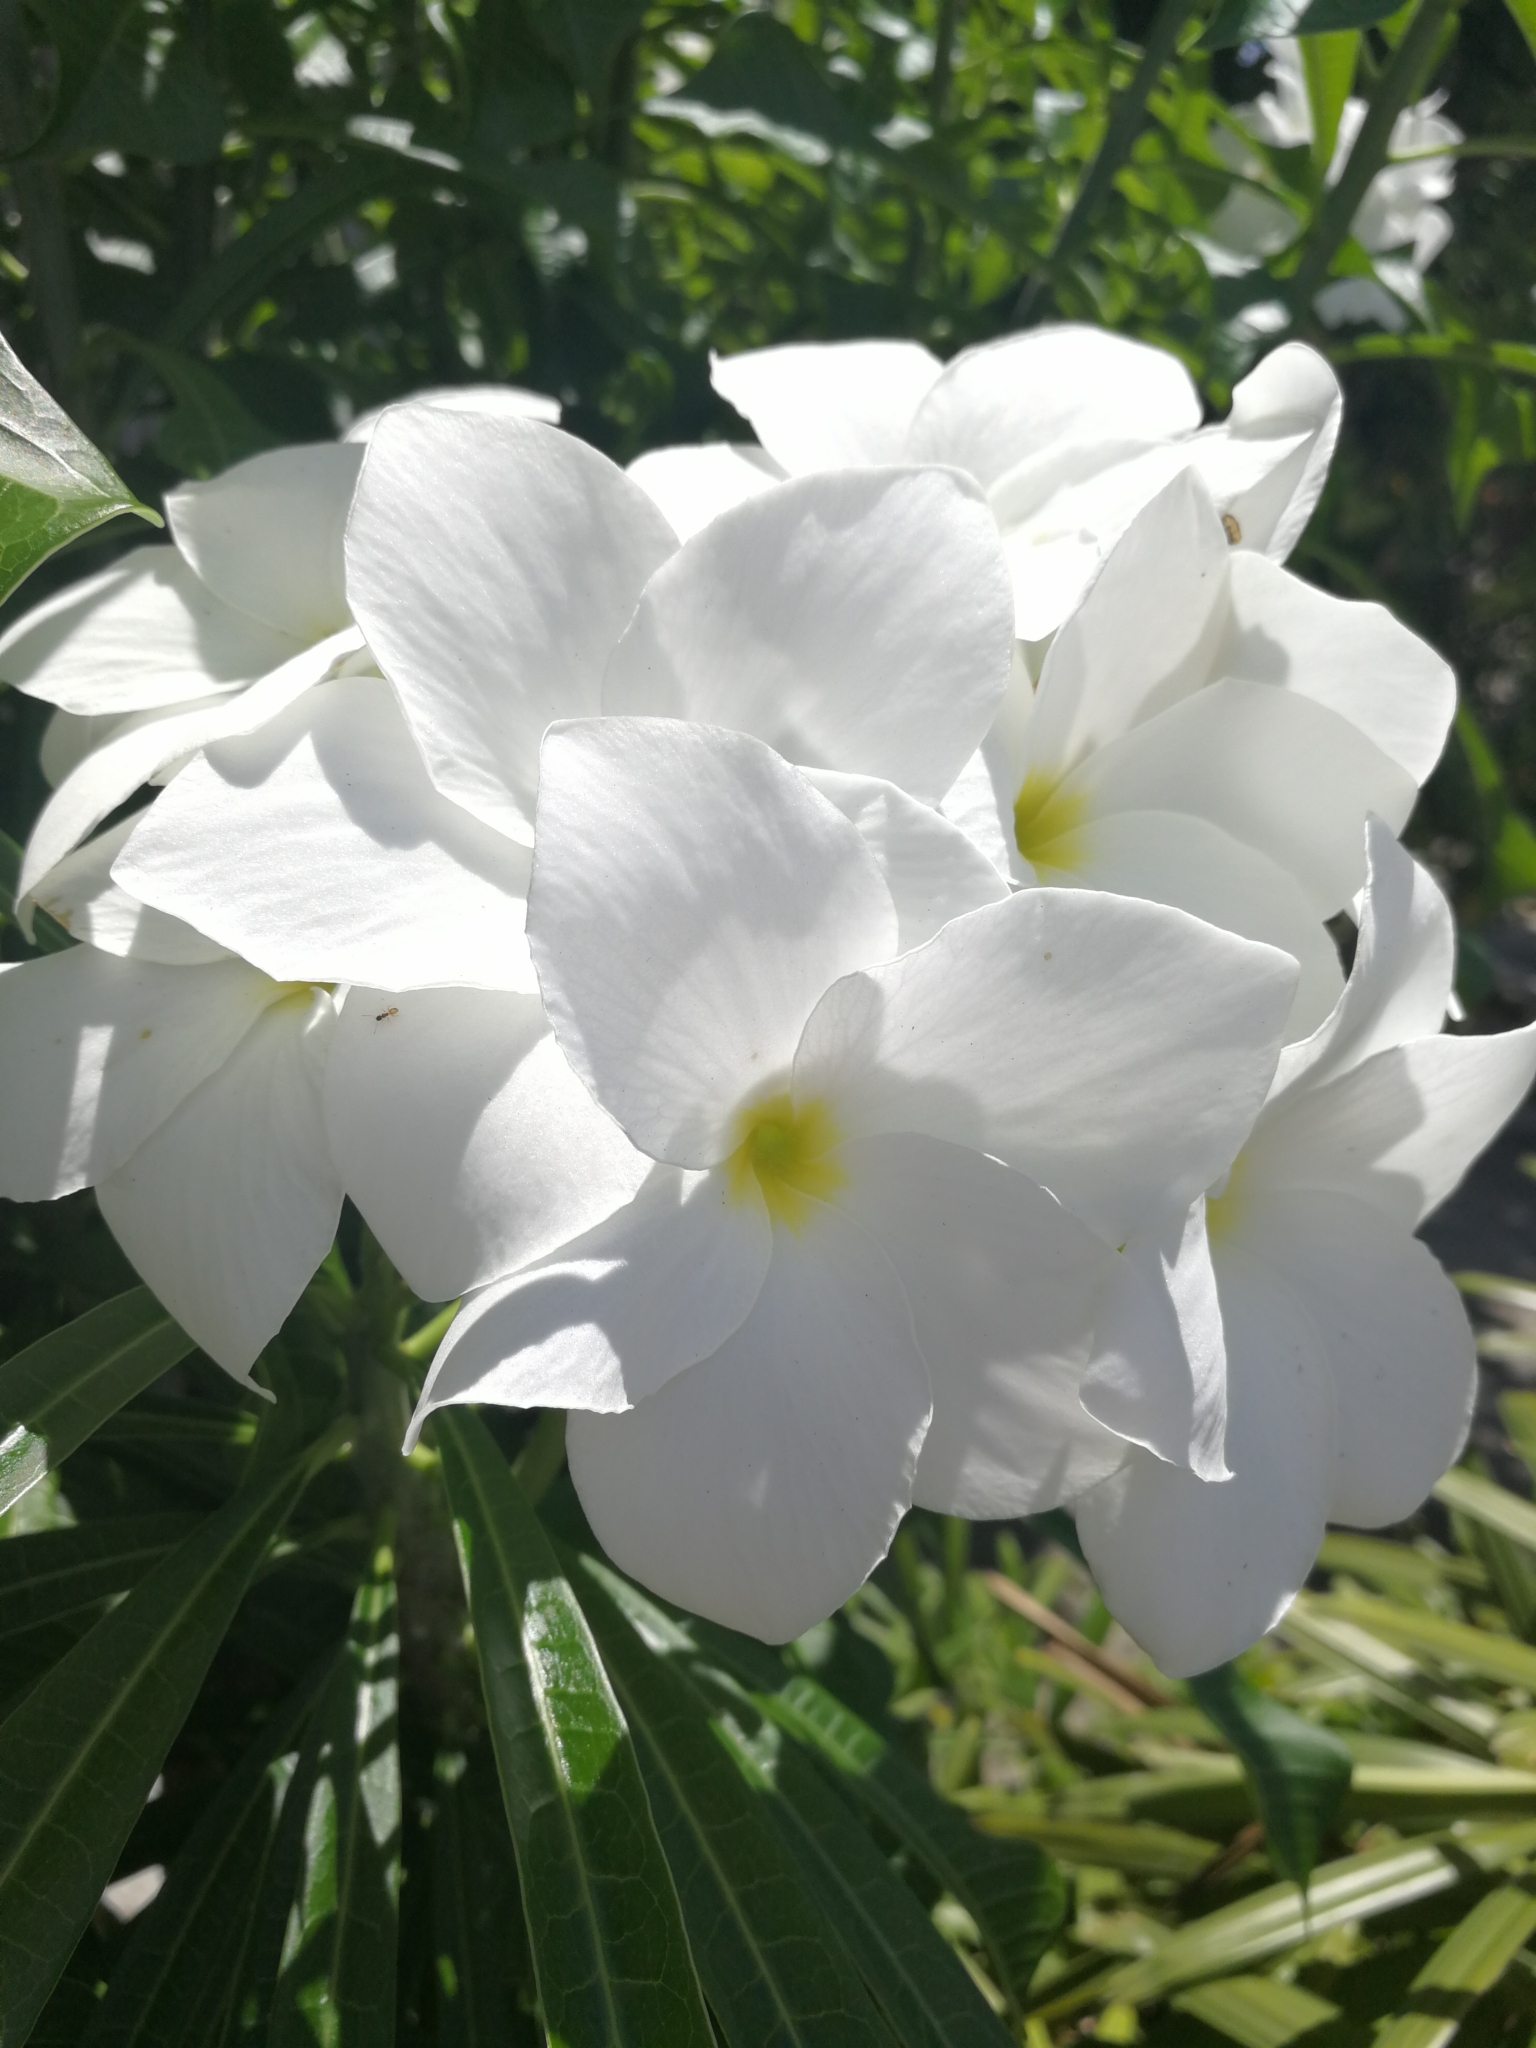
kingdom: Plantae
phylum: Tracheophyta
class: Magnoliopsida
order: Gentianales
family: Apocynaceae
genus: Plumeria
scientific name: Plumeria pudica
